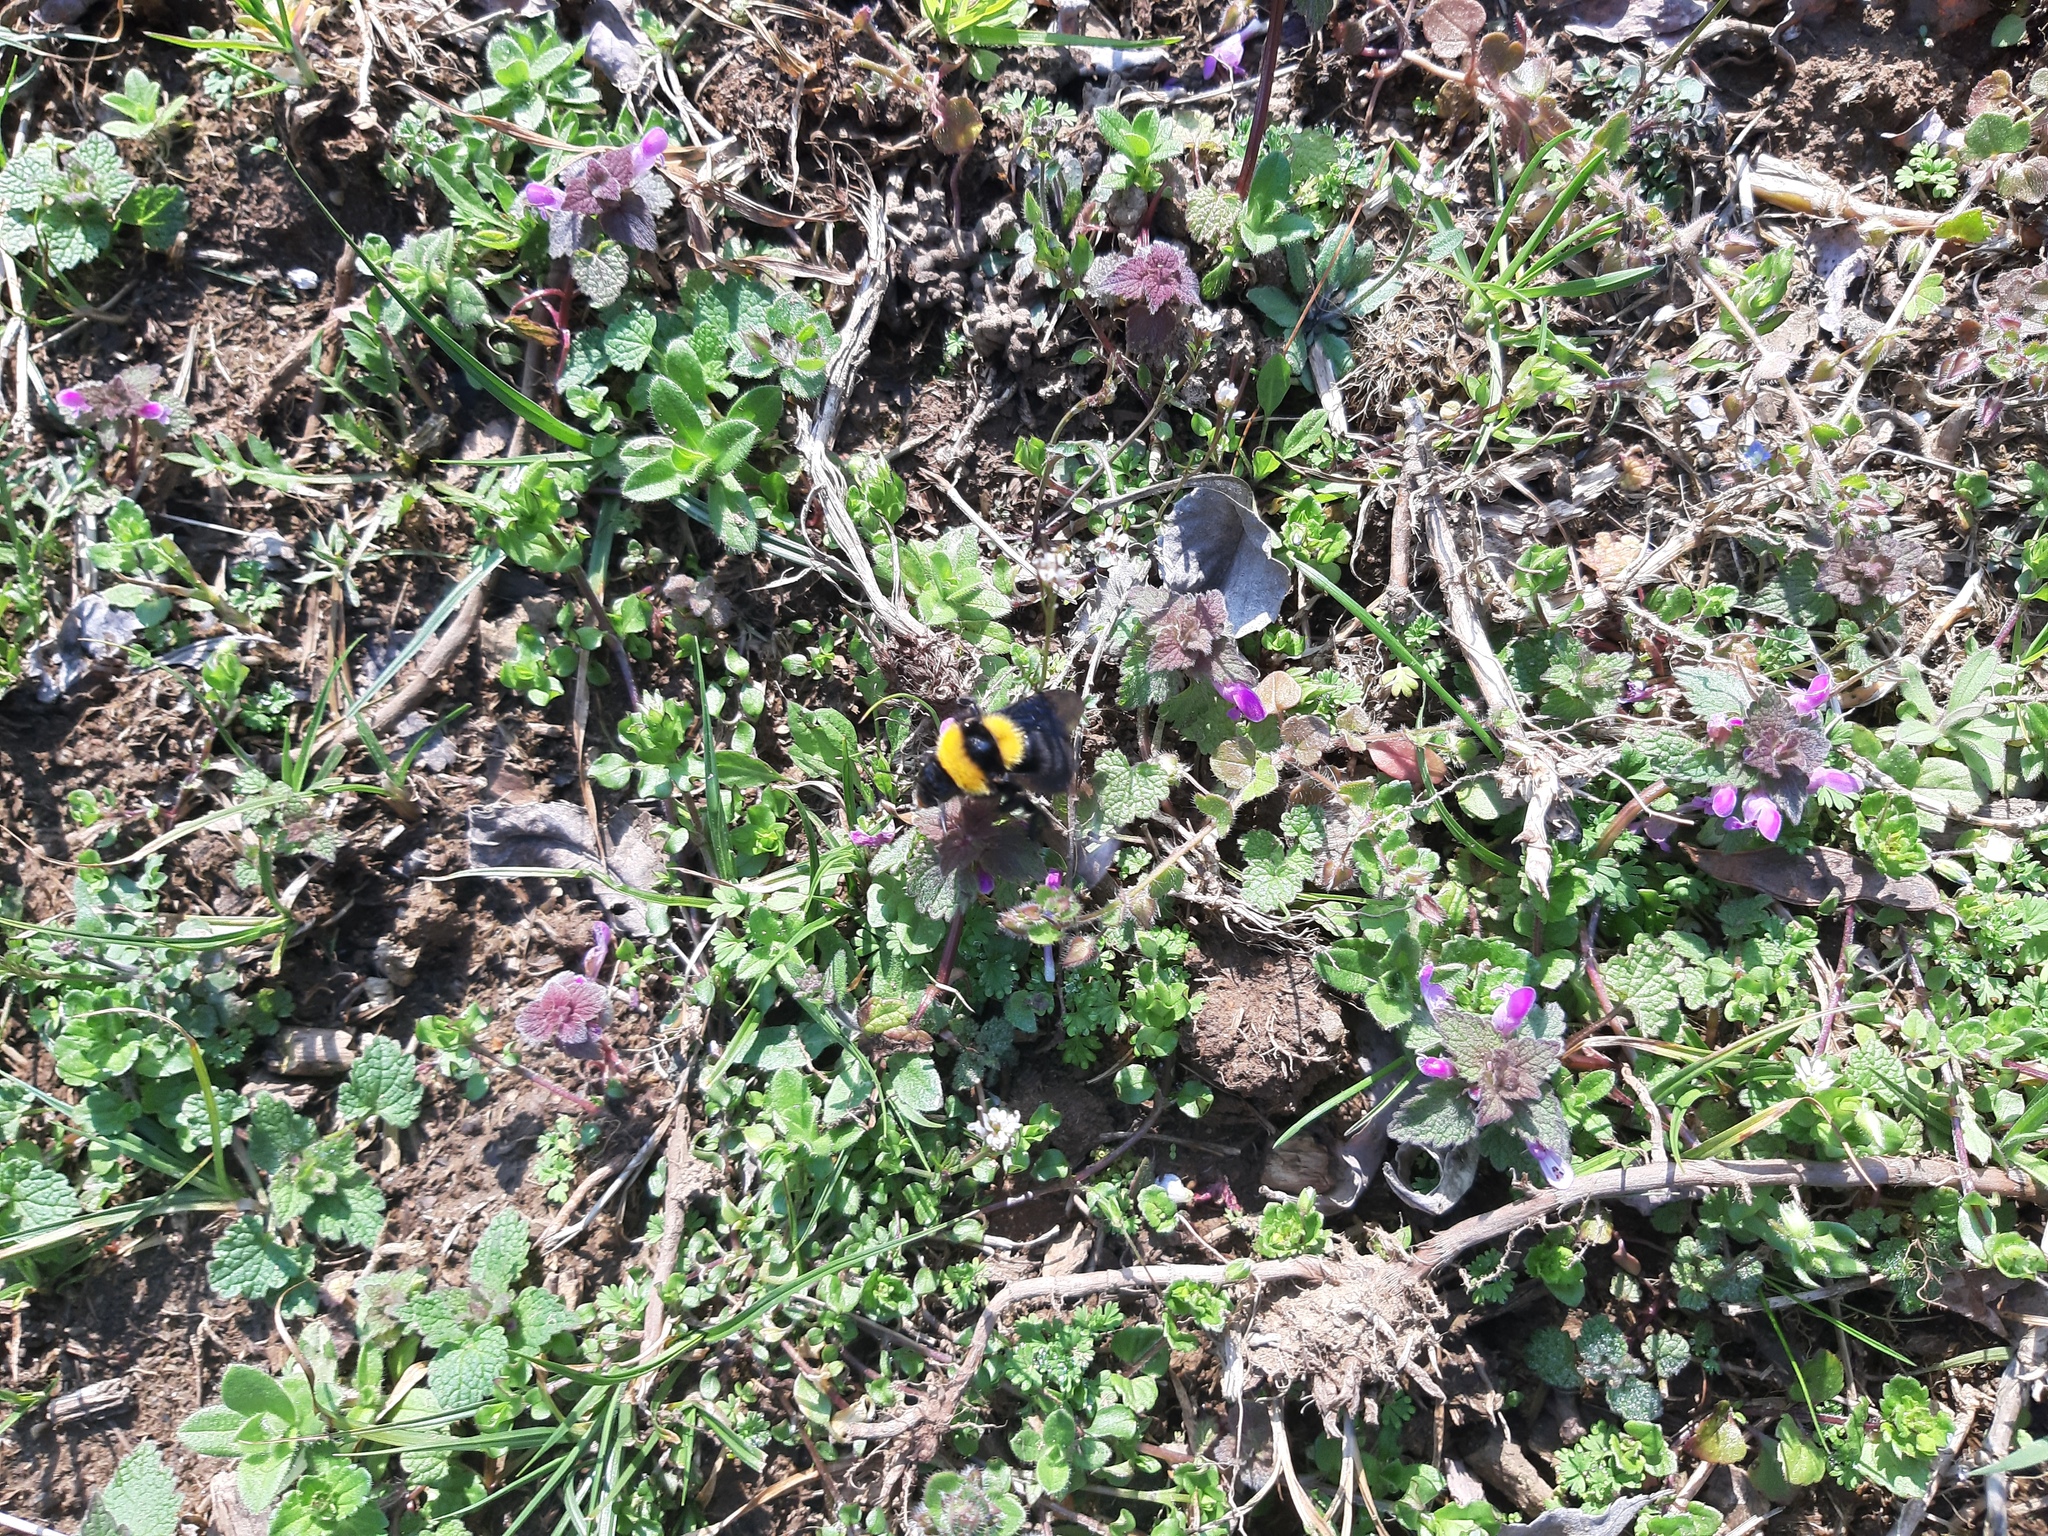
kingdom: Animalia
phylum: Arthropoda
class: Insecta
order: Hymenoptera
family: Apidae
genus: Bombus
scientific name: Bombus argillaceus
